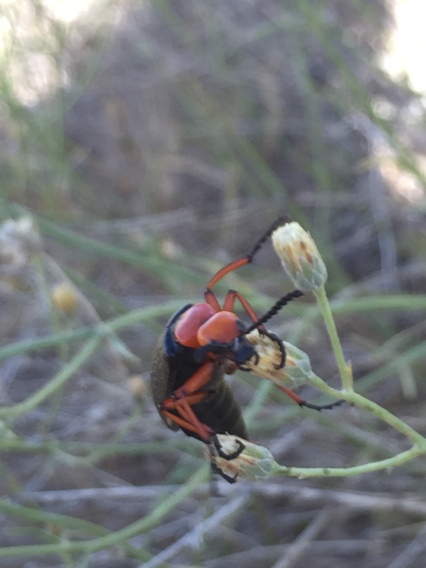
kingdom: Animalia
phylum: Arthropoda
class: Insecta
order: Coleoptera
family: Meloidae
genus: Lytta
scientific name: Lytta magister
